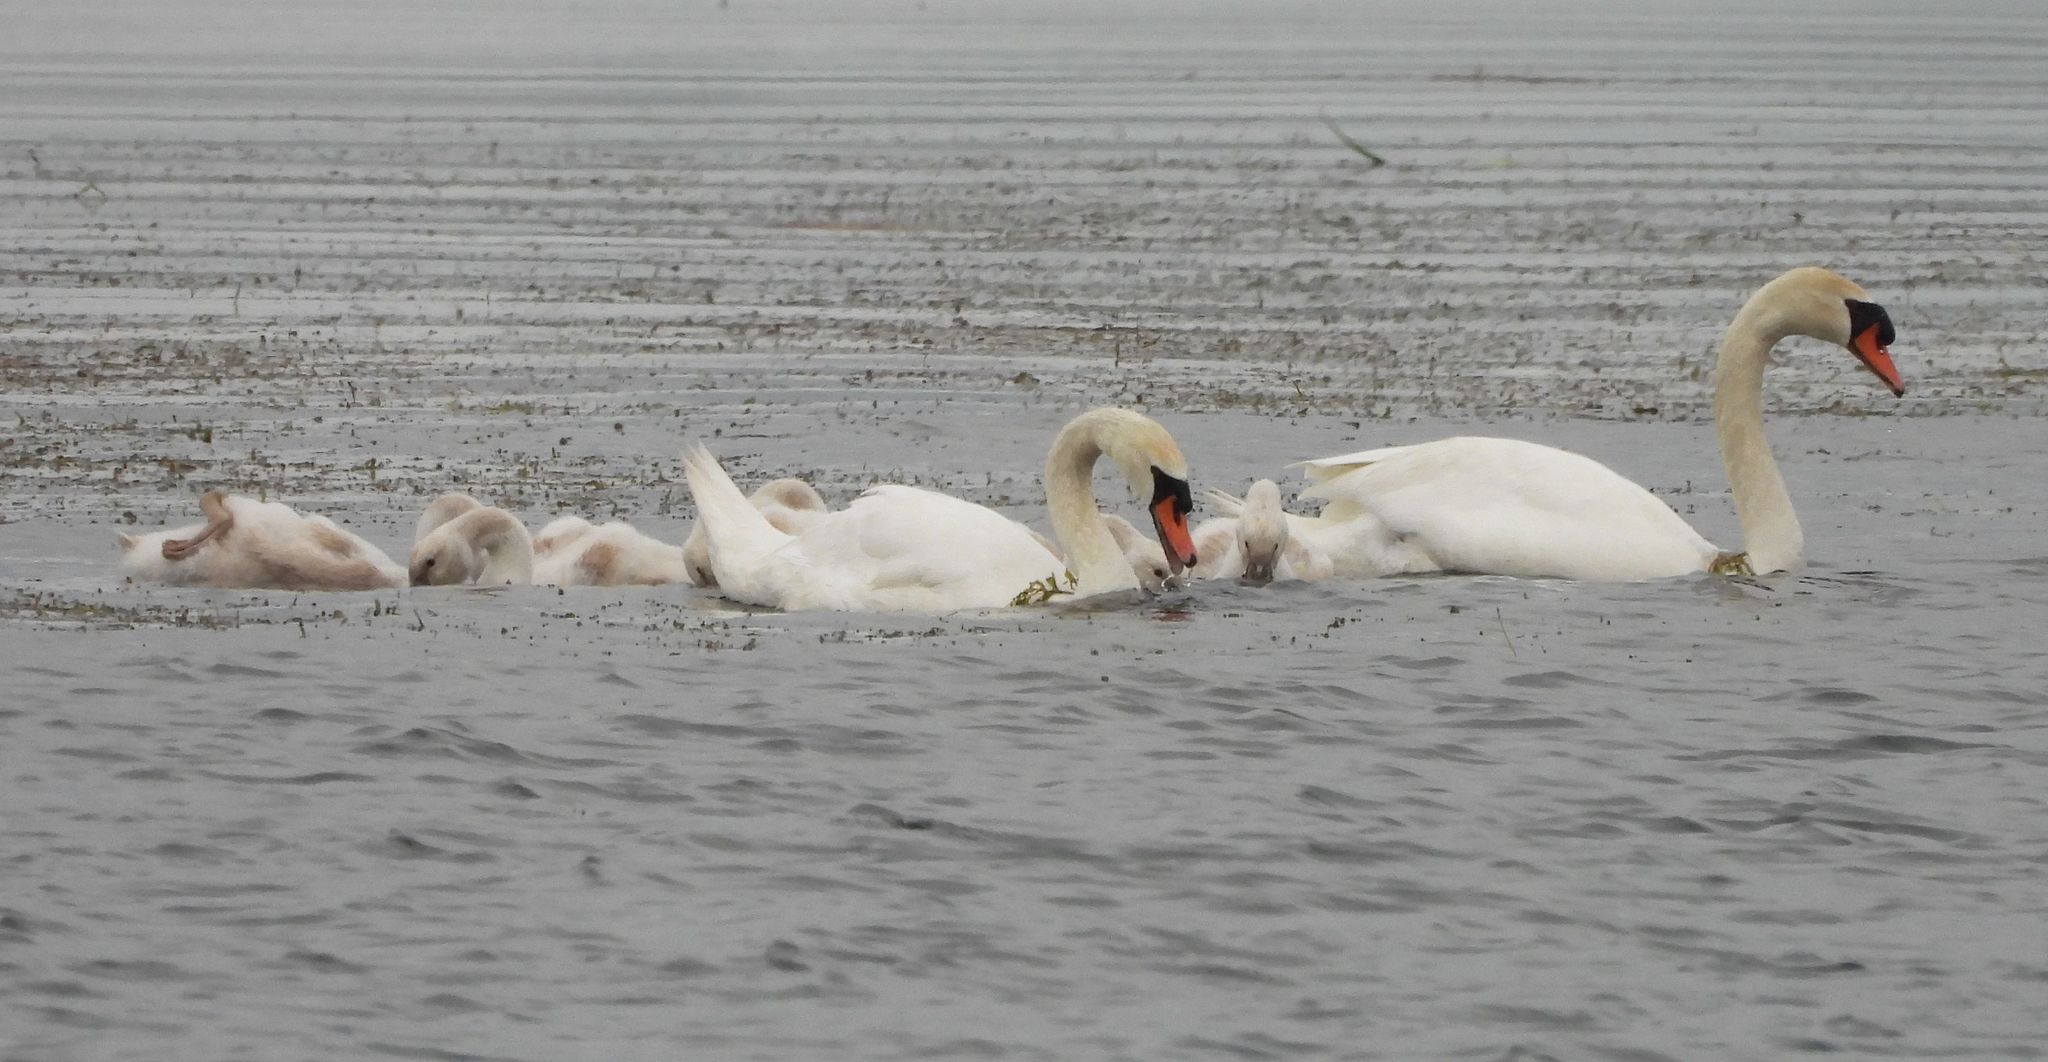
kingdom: Animalia
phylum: Chordata
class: Aves
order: Anseriformes
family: Anatidae
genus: Cygnus
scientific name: Cygnus olor
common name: Mute swan
